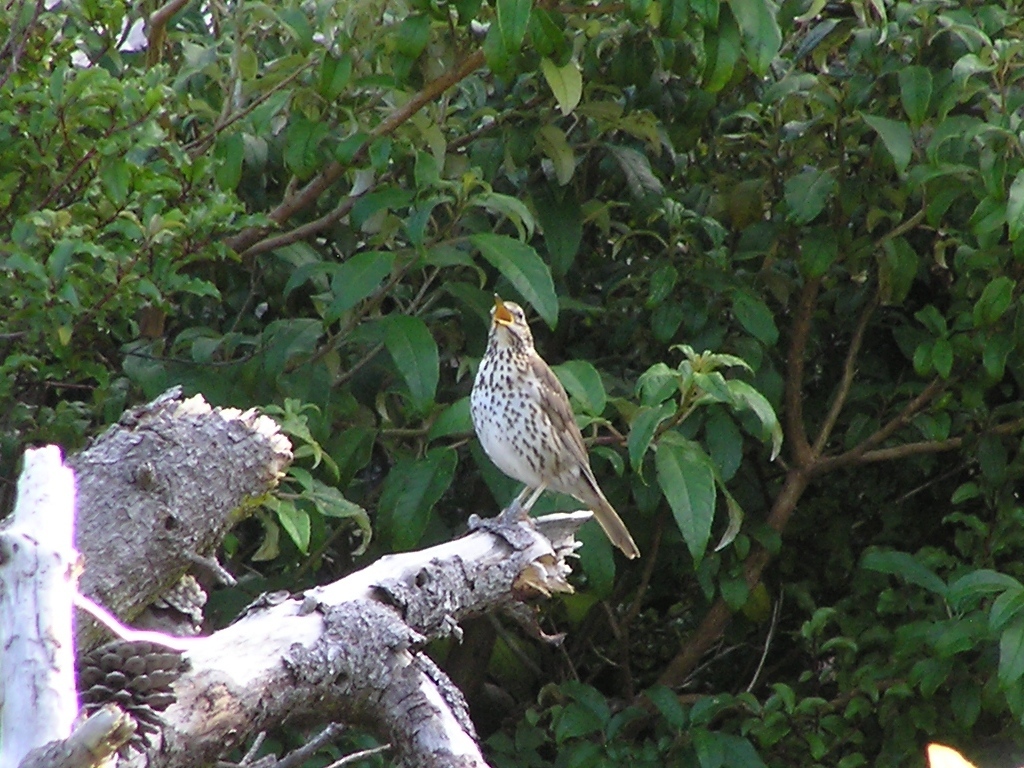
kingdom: Animalia
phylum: Chordata
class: Aves
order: Passeriformes
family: Turdidae
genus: Turdus
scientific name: Turdus philomelos
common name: Song thrush
